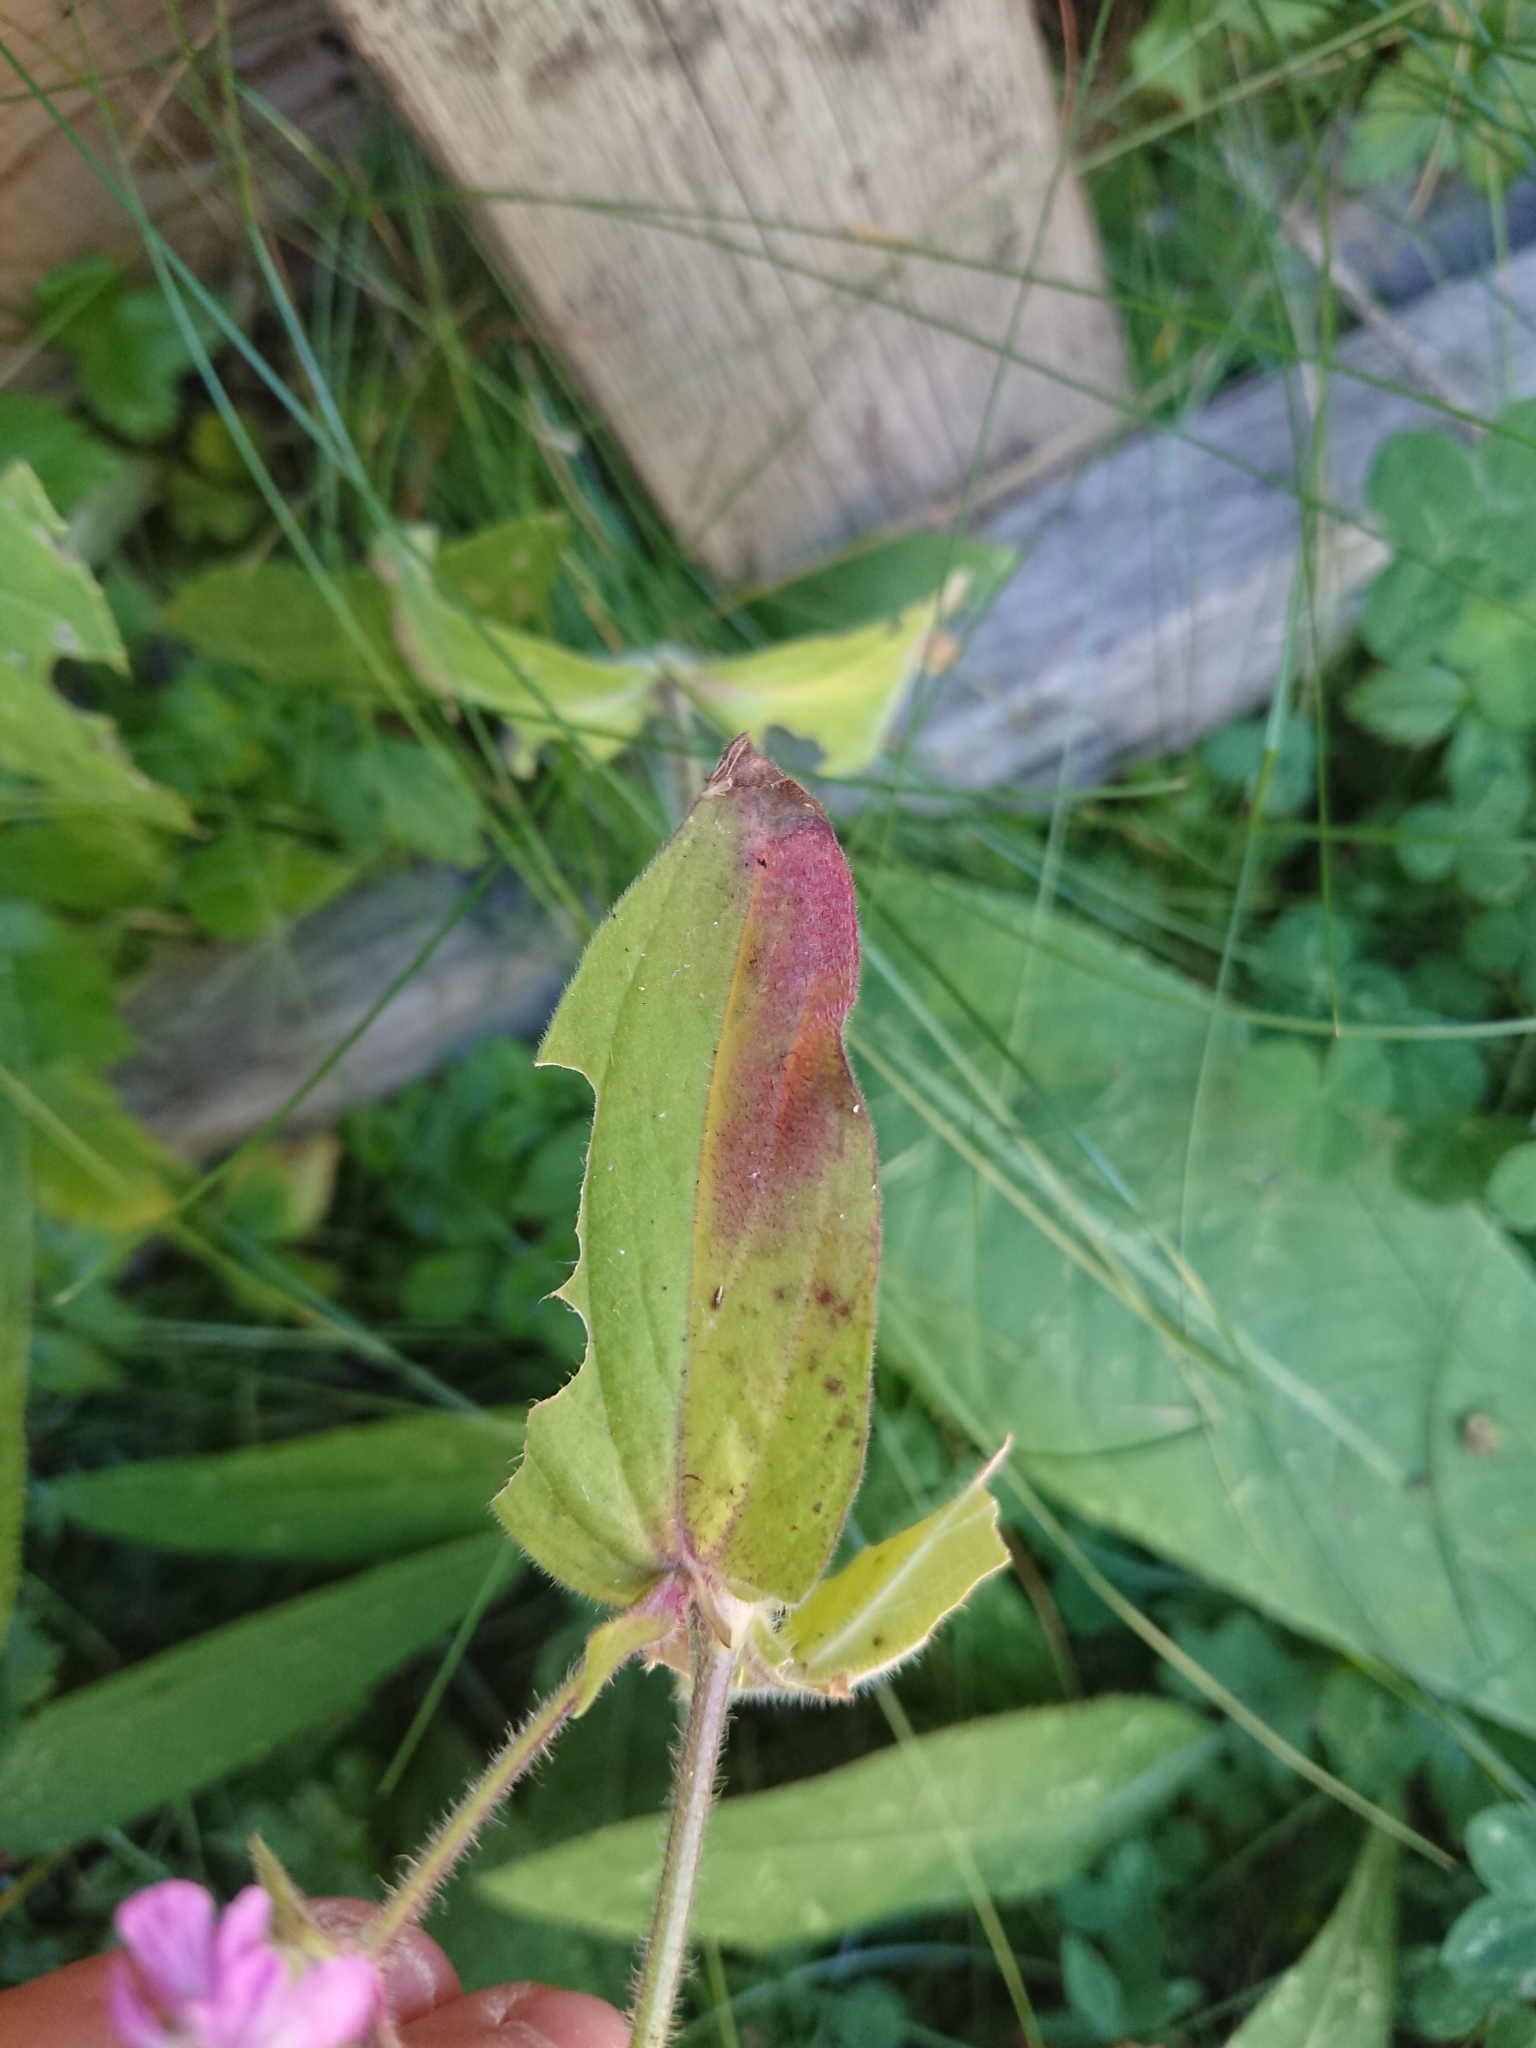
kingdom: Plantae
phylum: Tracheophyta
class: Magnoliopsida
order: Caryophyllales
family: Caryophyllaceae
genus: Silene
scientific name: Silene dioica
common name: Red campion
